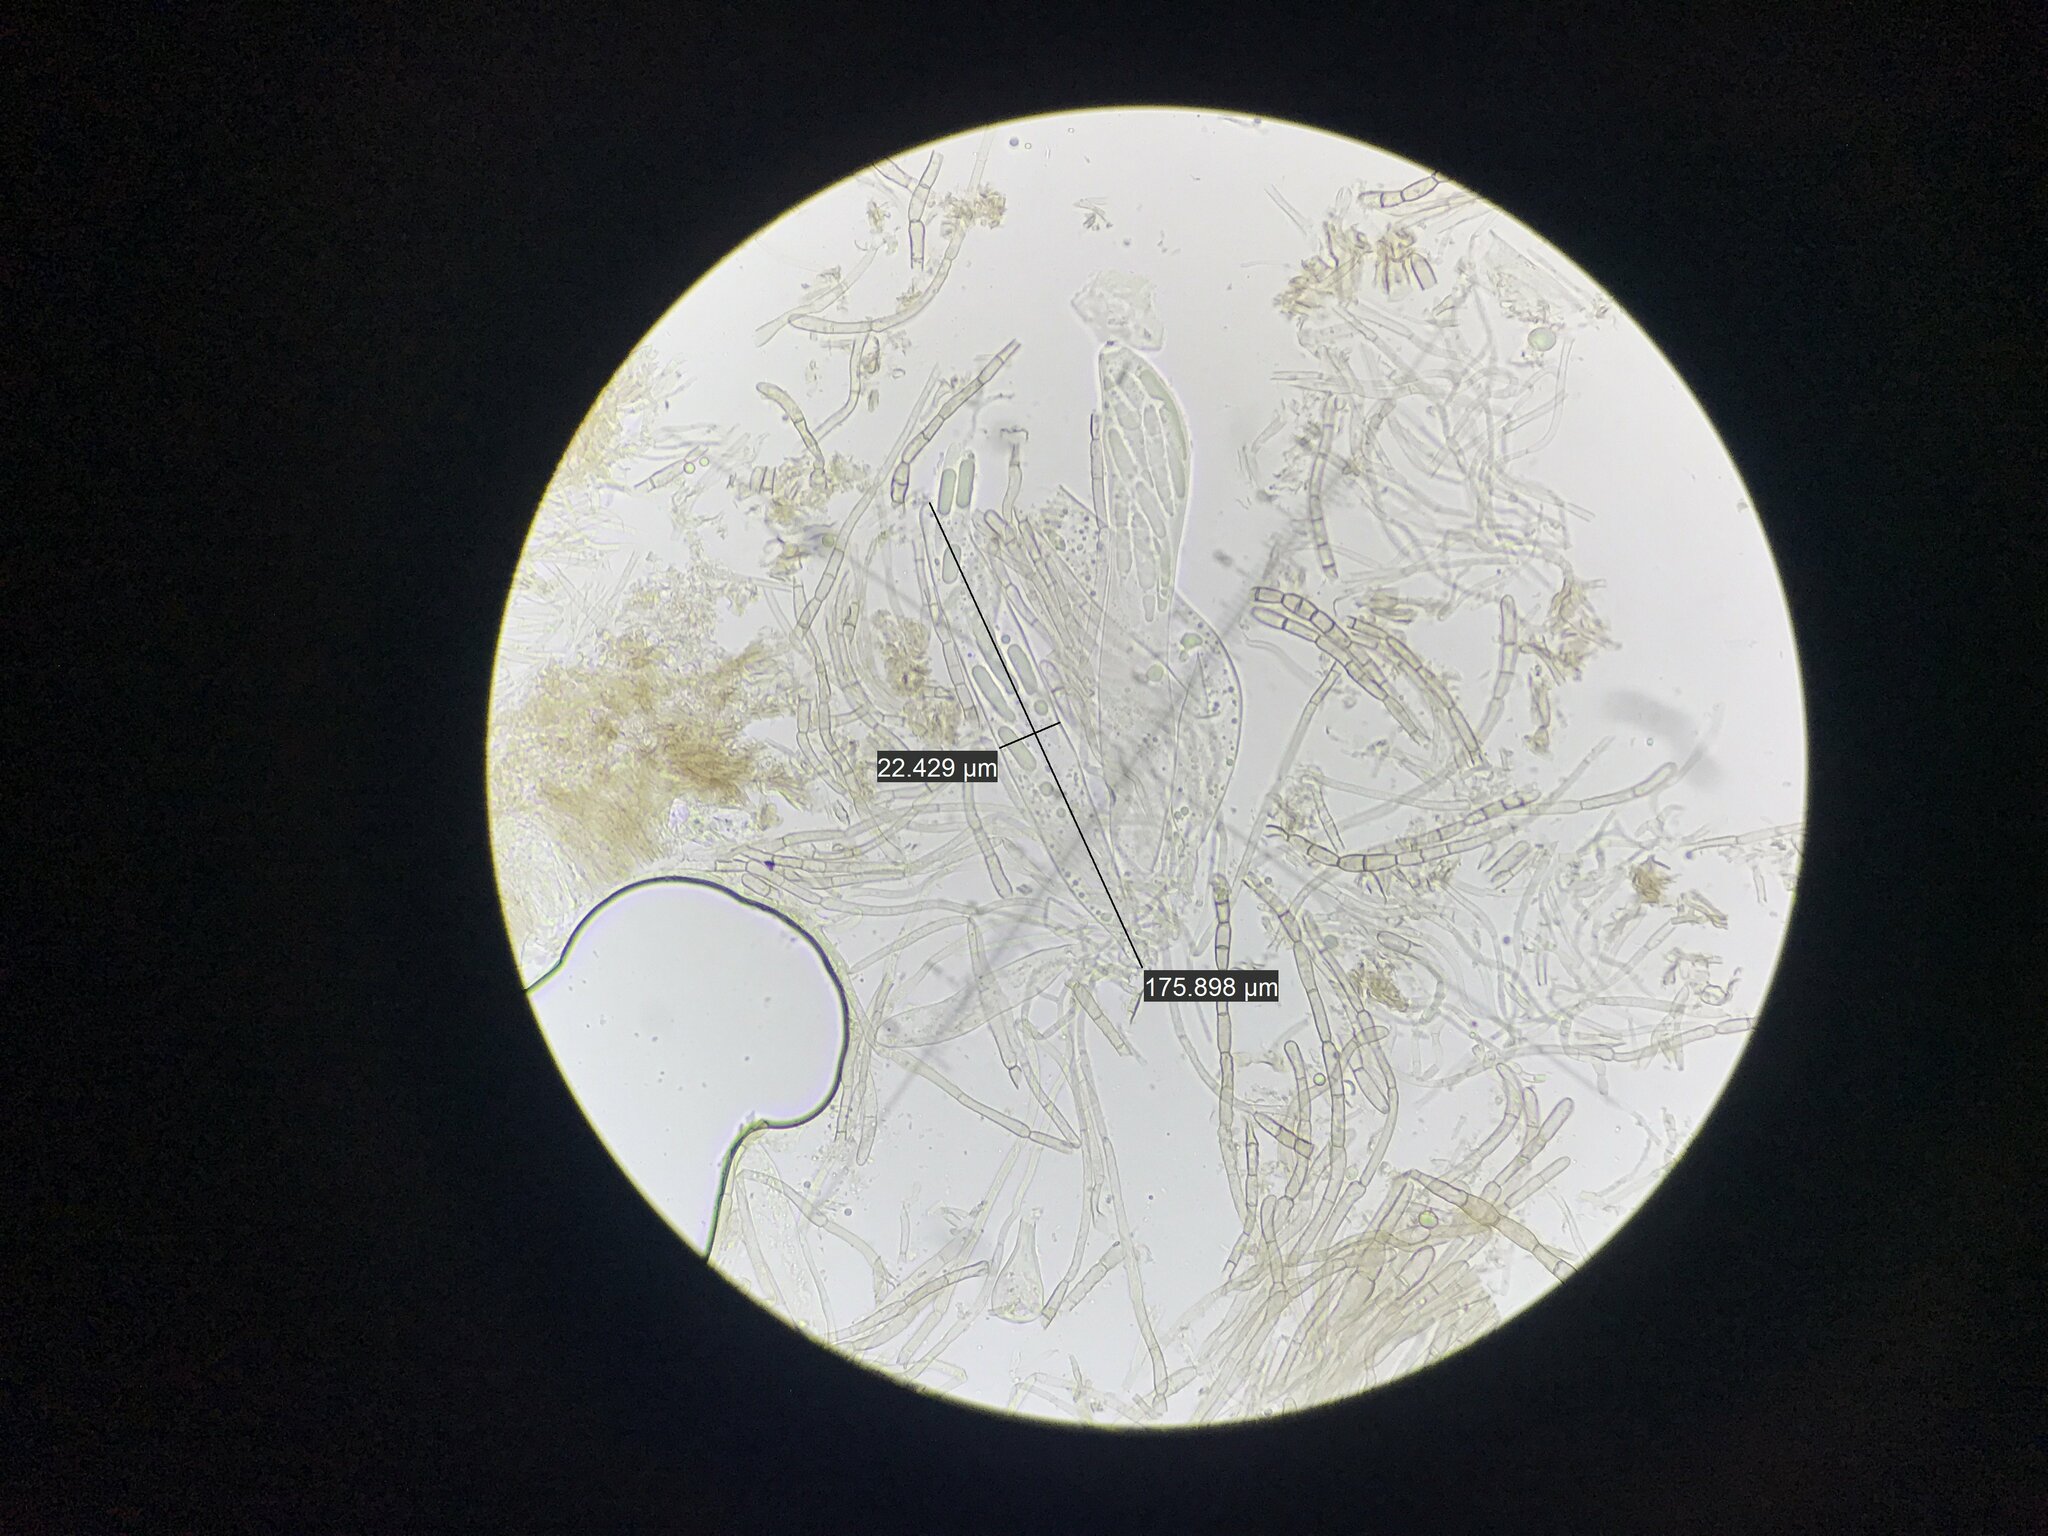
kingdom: Fungi
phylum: Ascomycota
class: Geoglossomycetes
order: Geoglossales
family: Geoglossaceae
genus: Geoglossum
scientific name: Geoglossum simile
